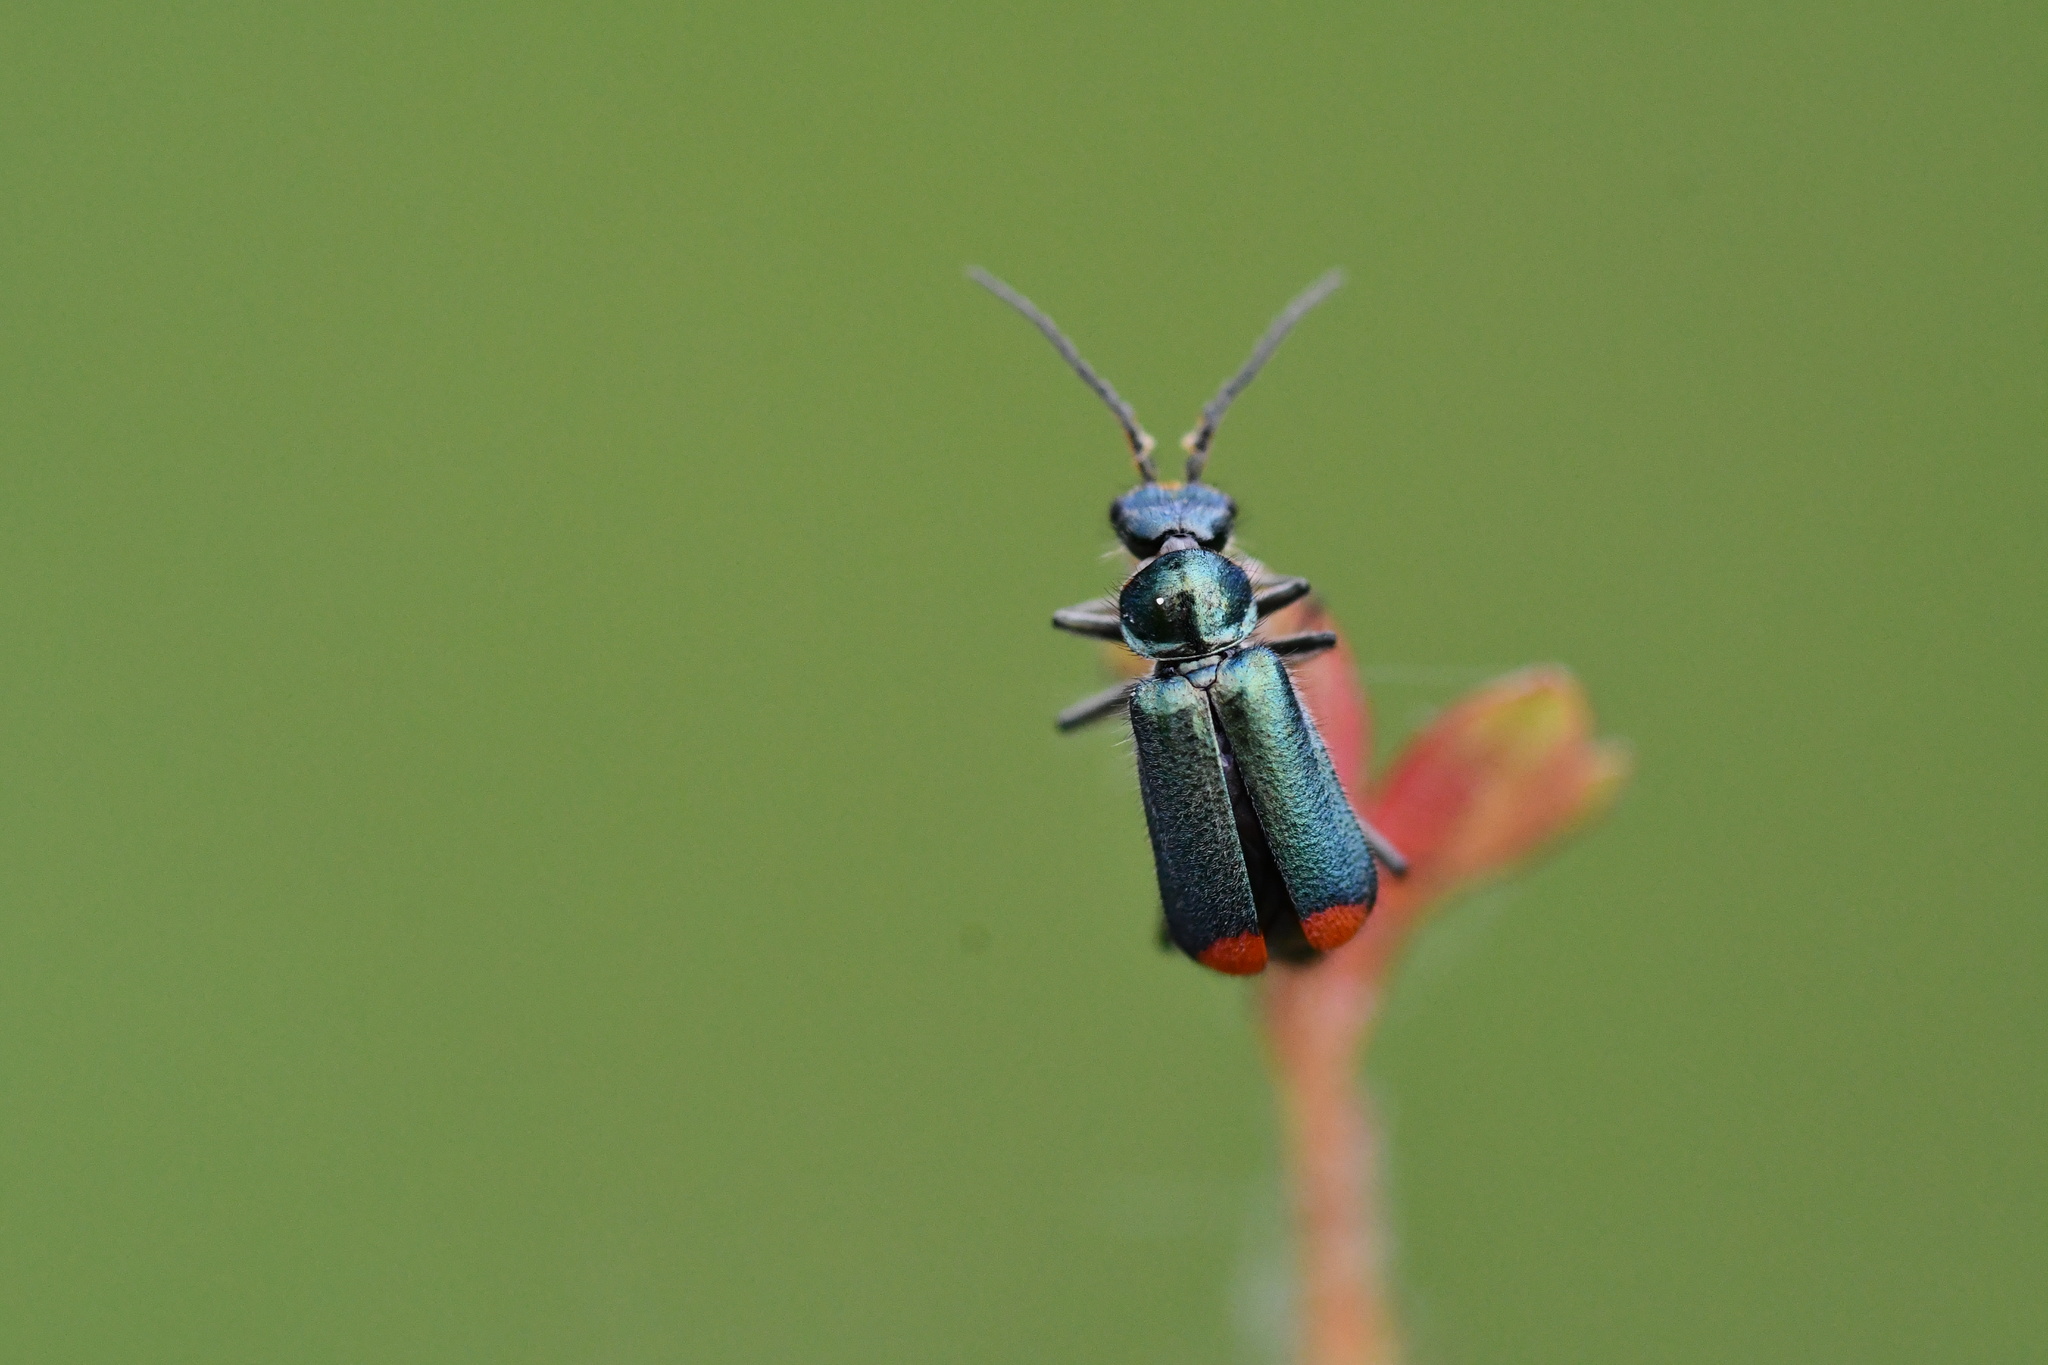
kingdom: Animalia
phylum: Arthropoda
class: Insecta
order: Coleoptera
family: Melyridae
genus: Malachius
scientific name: Malachius bipustulatus
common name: Malachite beetle
